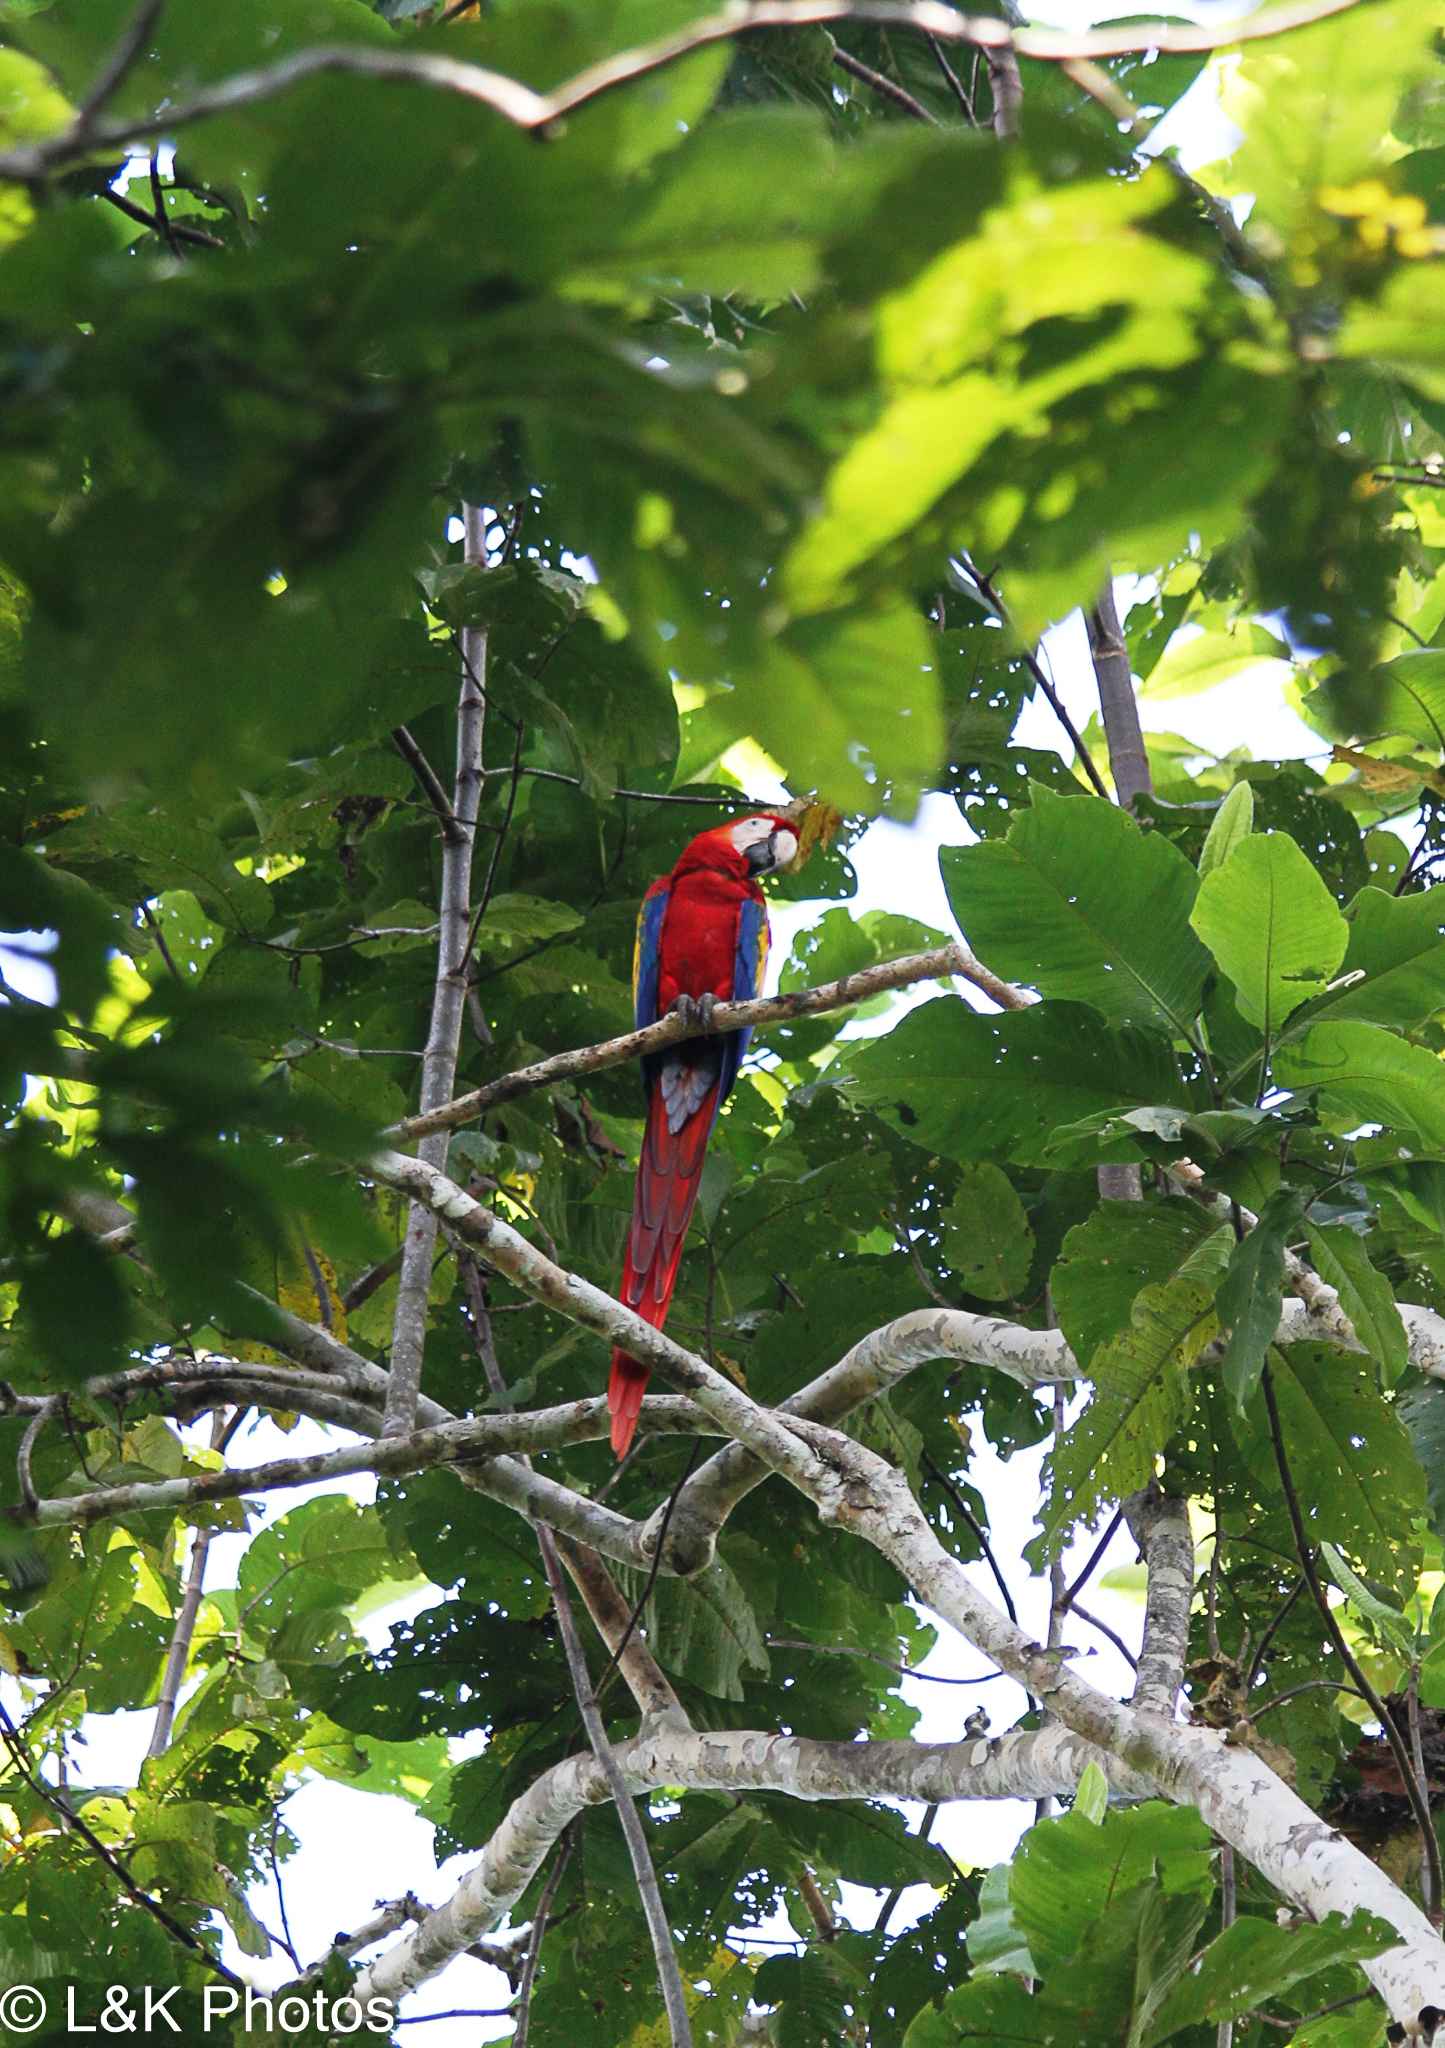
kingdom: Animalia
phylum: Chordata
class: Aves
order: Psittaciformes
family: Psittacidae
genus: Ara
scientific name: Ara macao
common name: Scarlet macaw
